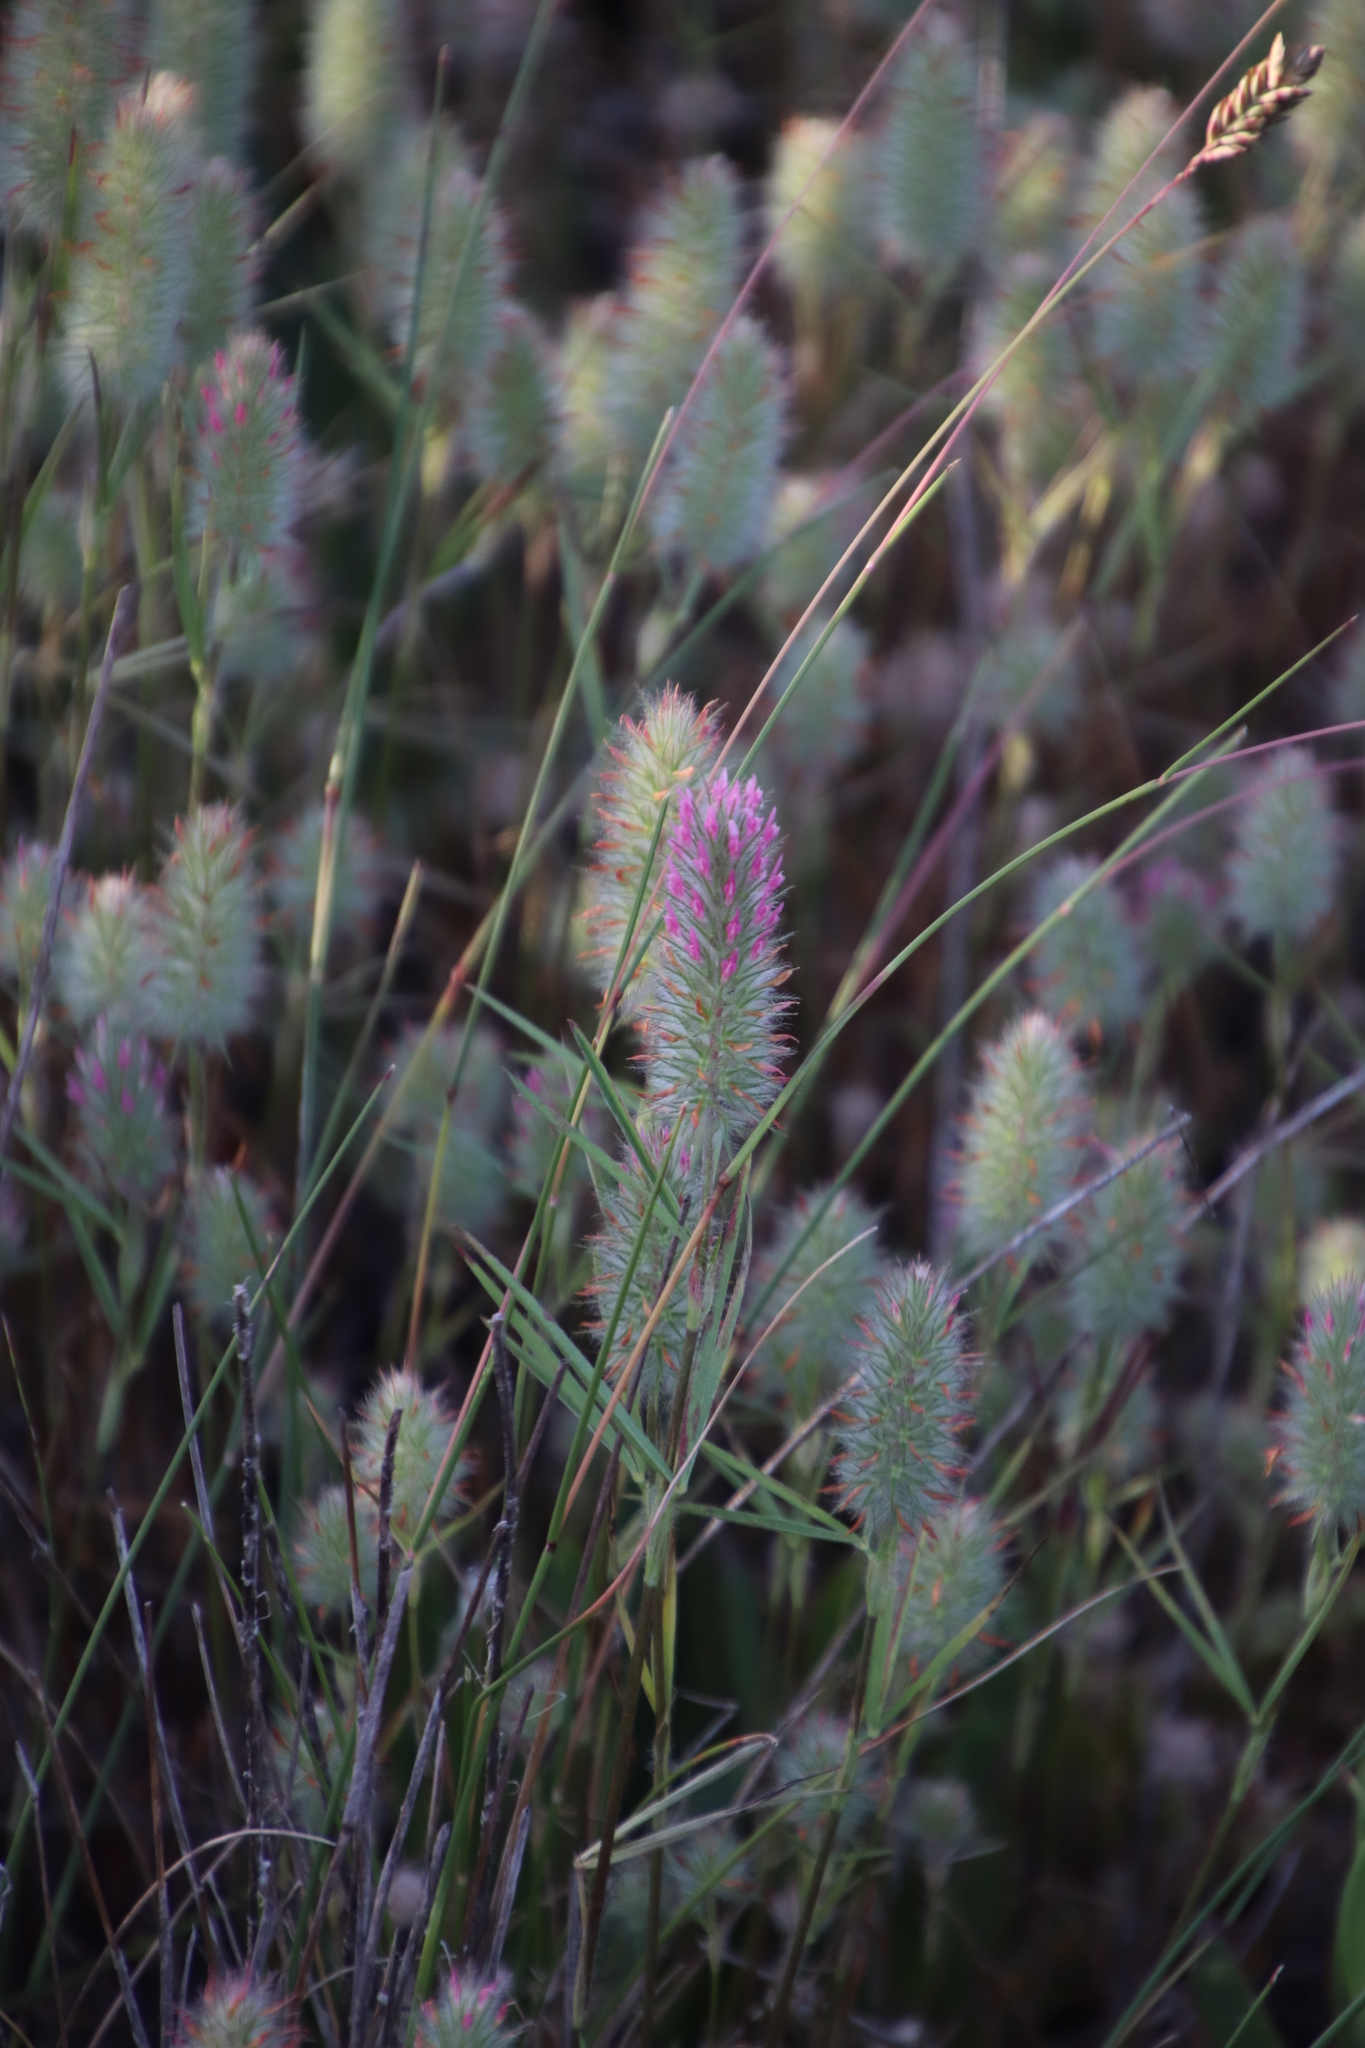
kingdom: Plantae
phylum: Tracheophyta
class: Magnoliopsida
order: Fabales
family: Fabaceae
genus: Trifolium
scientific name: Trifolium angustifolium
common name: Narrow clover
